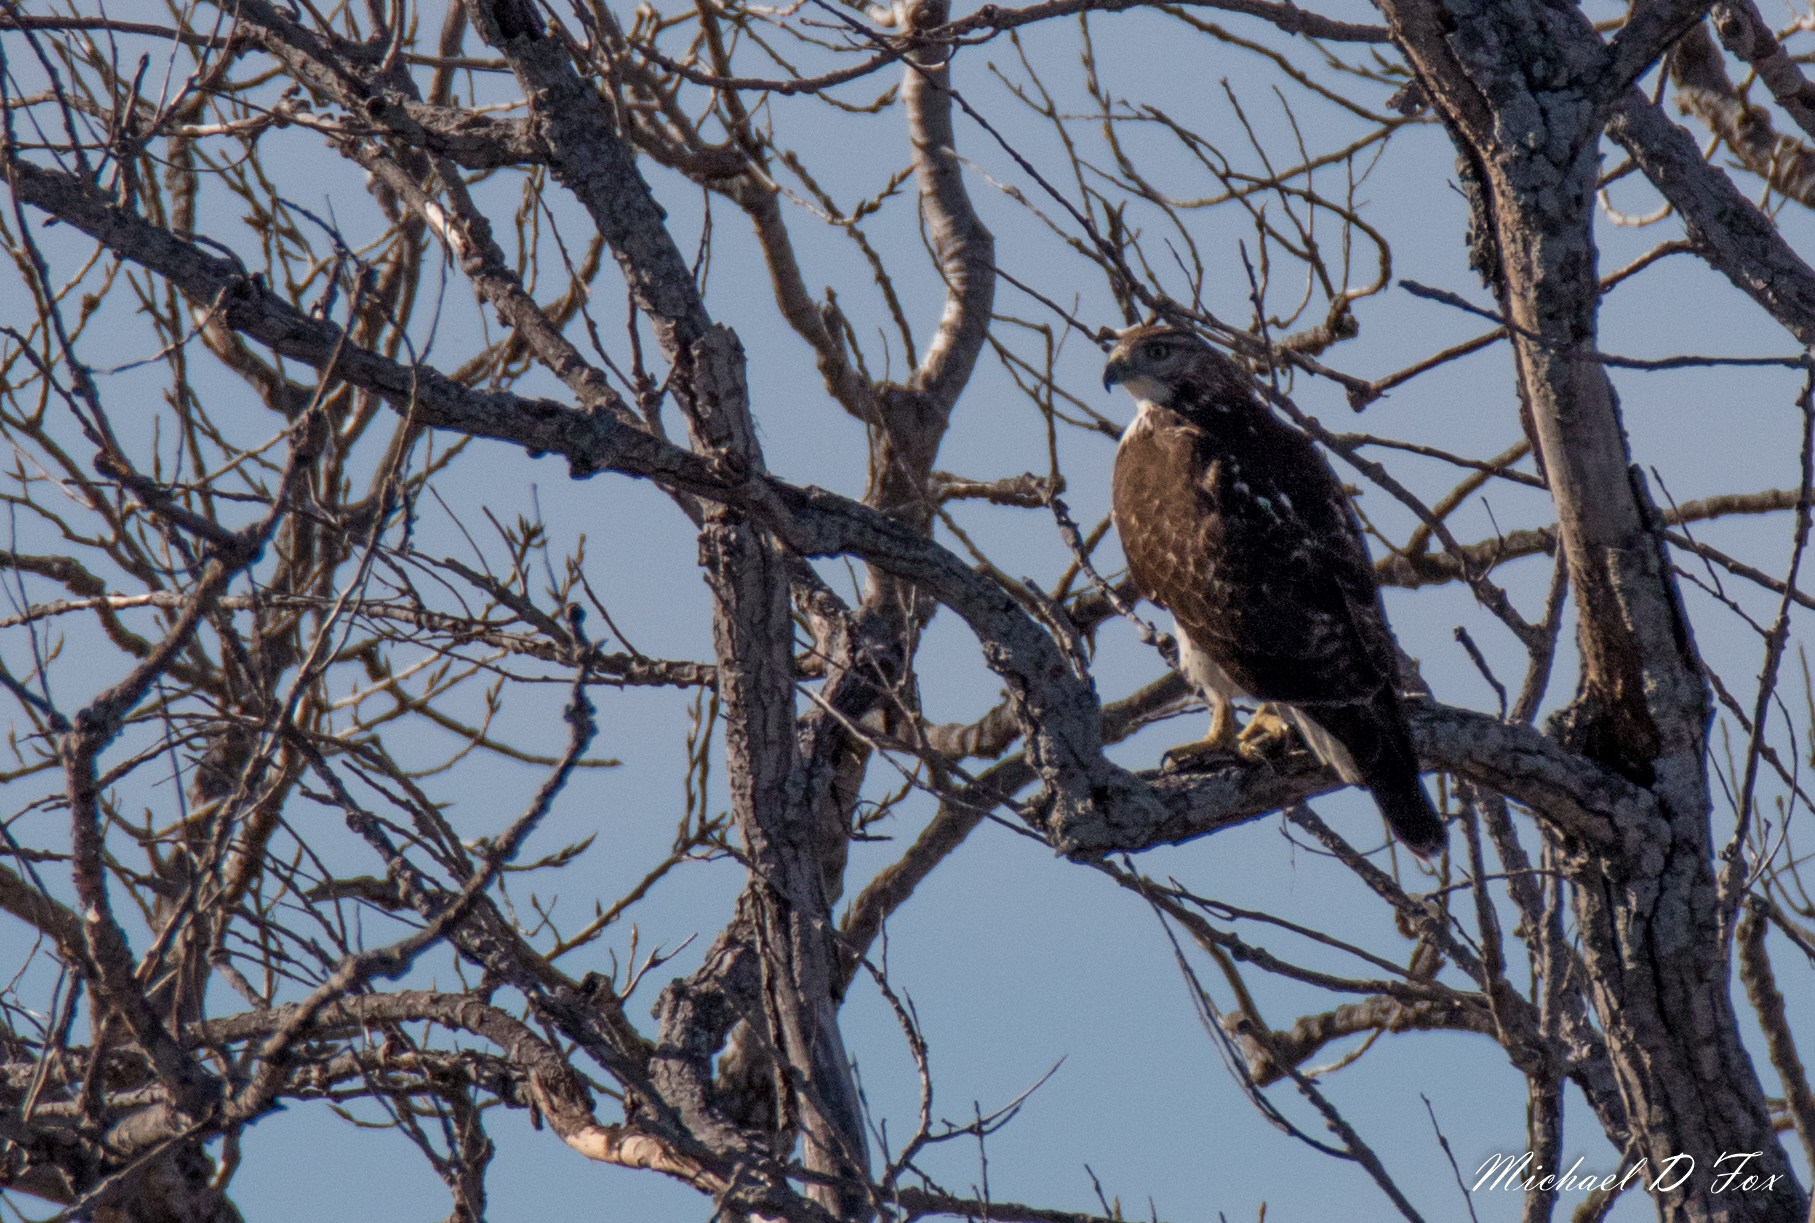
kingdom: Animalia
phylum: Chordata
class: Aves
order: Accipitriformes
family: Accipitridae
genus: Buteo
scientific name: Buteo jamaicensis
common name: Red-tailed hawk
